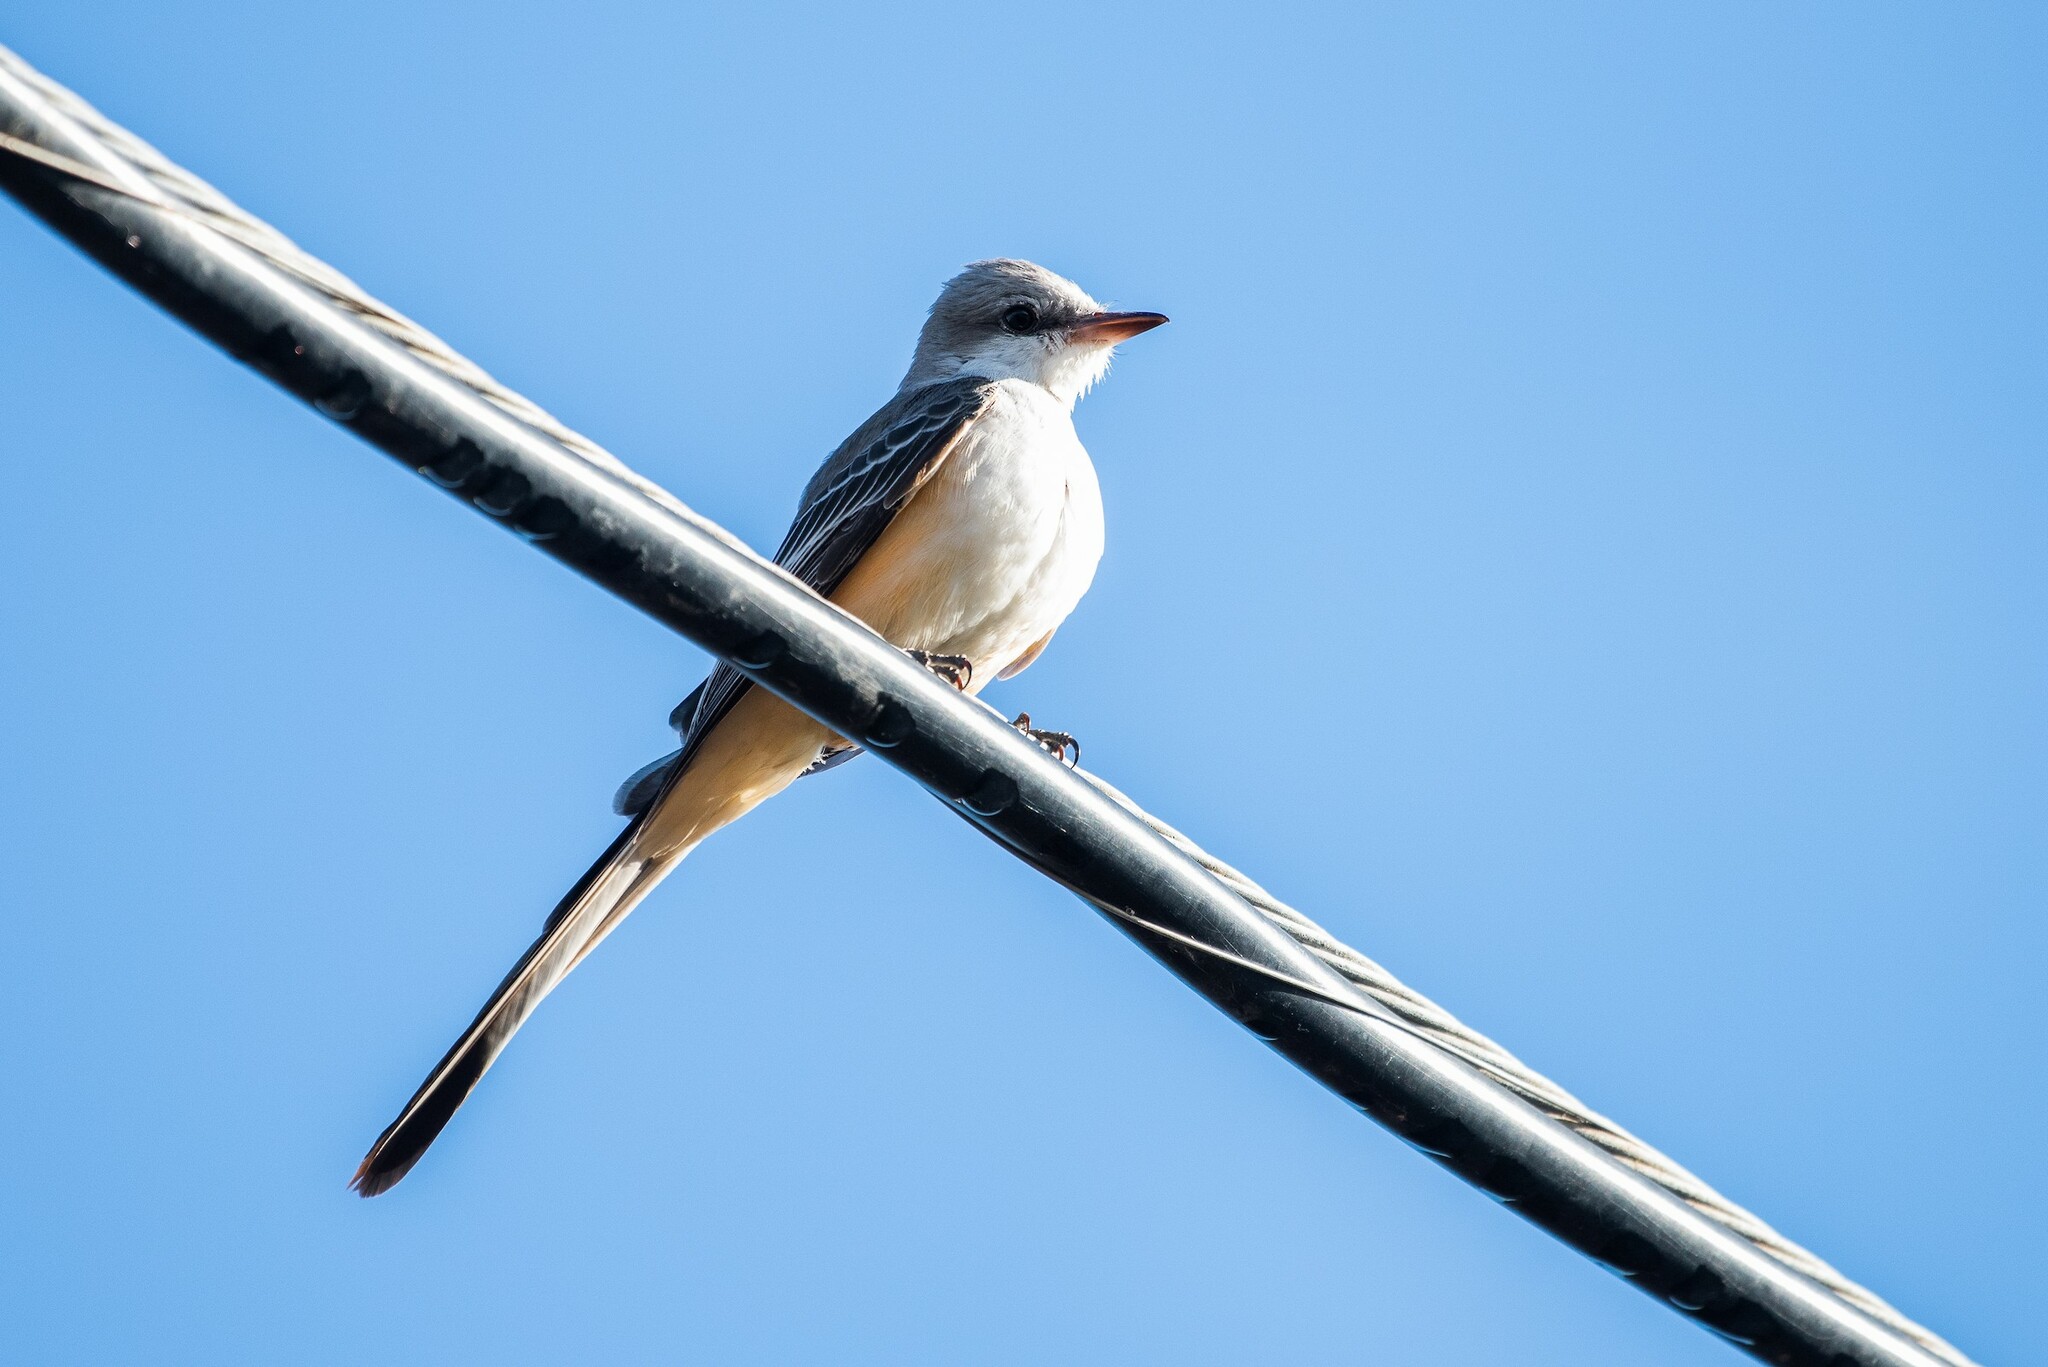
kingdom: Animalia
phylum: Chordata
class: Aves
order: Passeriformes
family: Tyrannidae
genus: Tyrannus
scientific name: Tyrannus forficatus
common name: Scissor-tailed flycatcher
